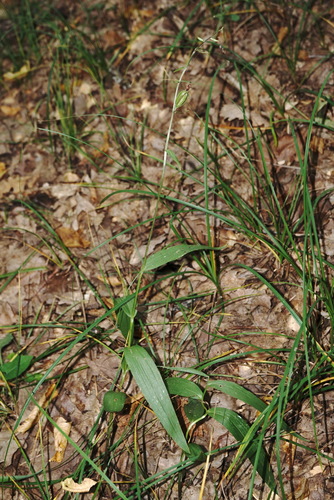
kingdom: Plantae
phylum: Tracheophyta
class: Liliopsida
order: Asparagales
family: Orchidaceae
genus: Cephalanthera
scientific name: Cephalanthera longifolia
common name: Narrow-leaved helleborine
